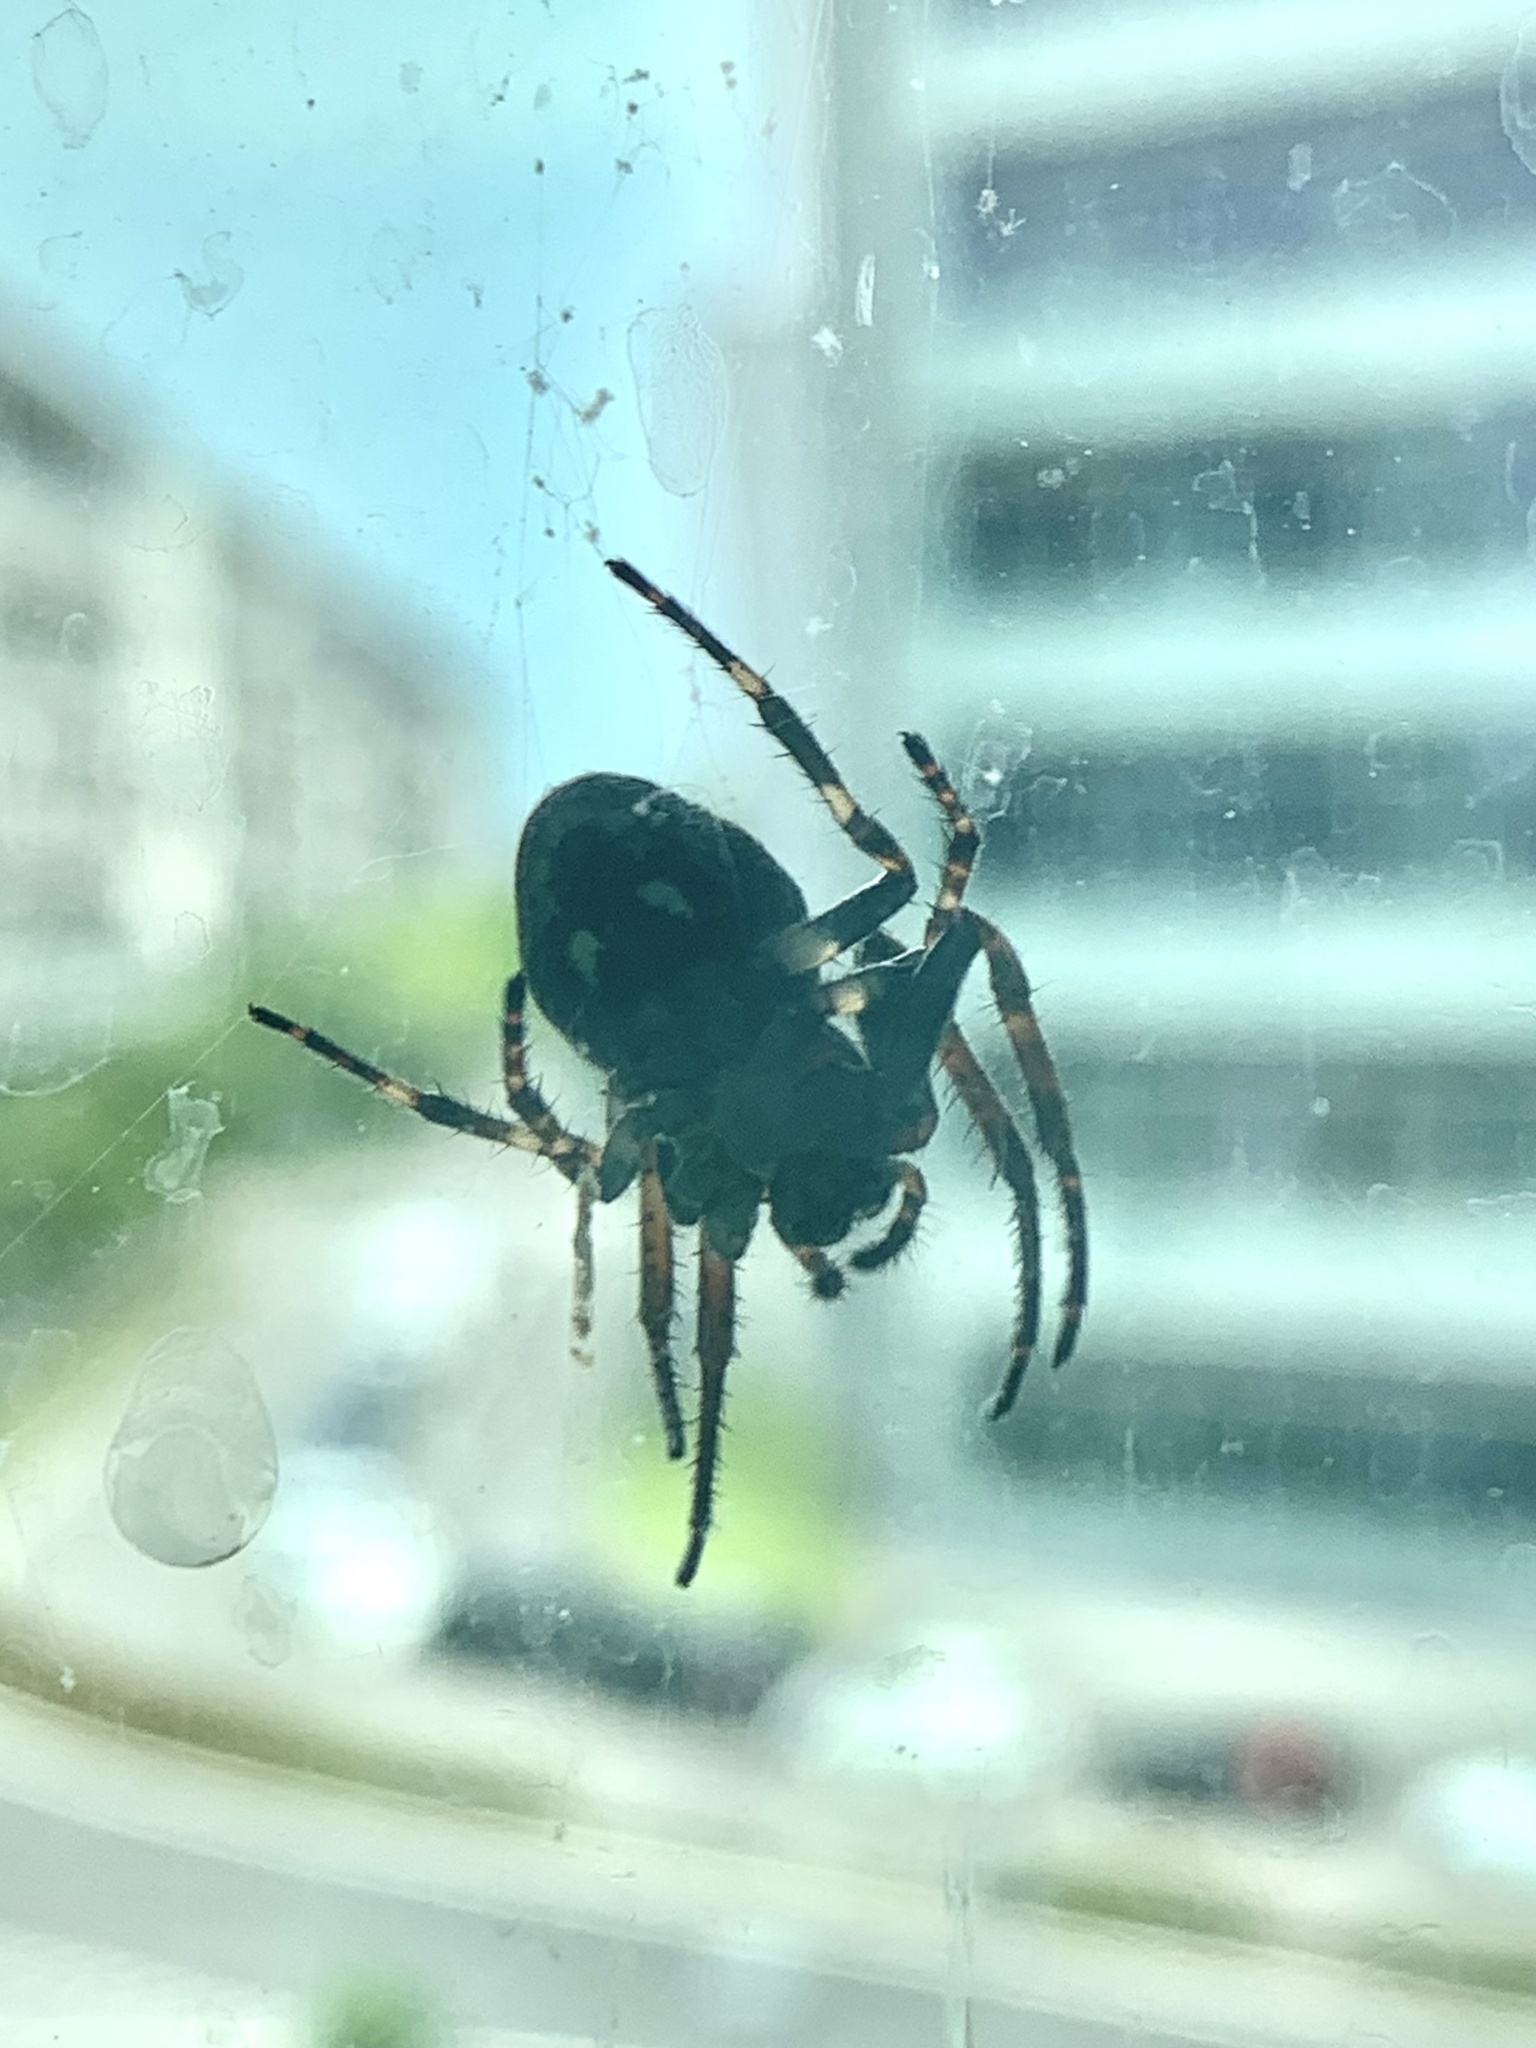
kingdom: Animalia
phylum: Arthropoda
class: Arachnida
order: Araneae
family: Araneidae
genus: Nuctenea
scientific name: Nuctenea umbratica
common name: Toad spider
